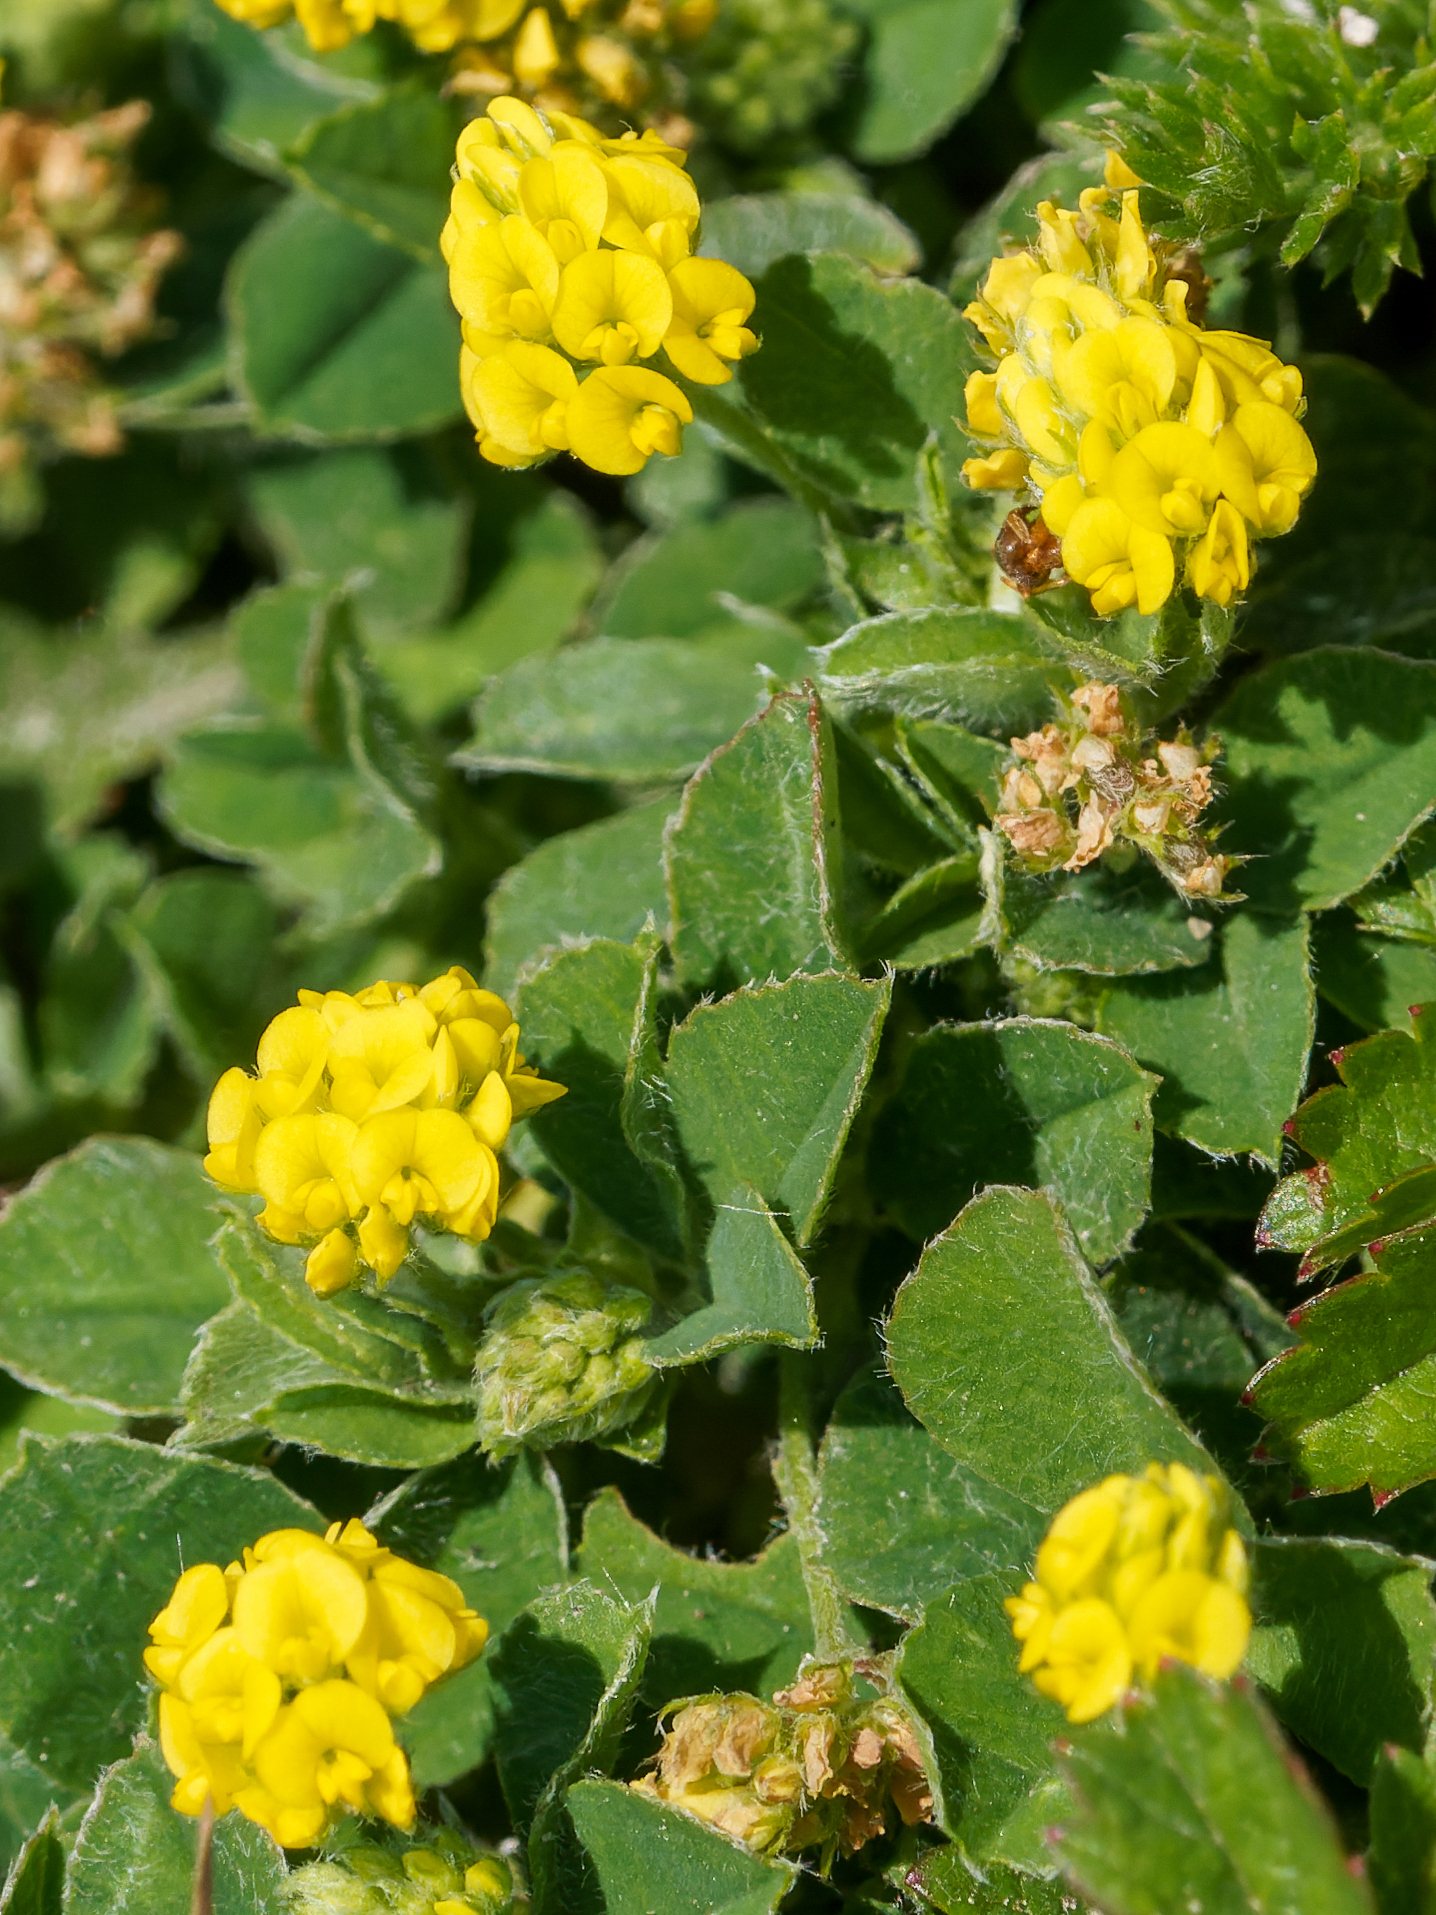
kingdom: Plantae
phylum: Tracheophyta
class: Magnoliopsida
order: Fabales
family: Fabaceae
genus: Medicago
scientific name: Medicago lupulina
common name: Black medick
